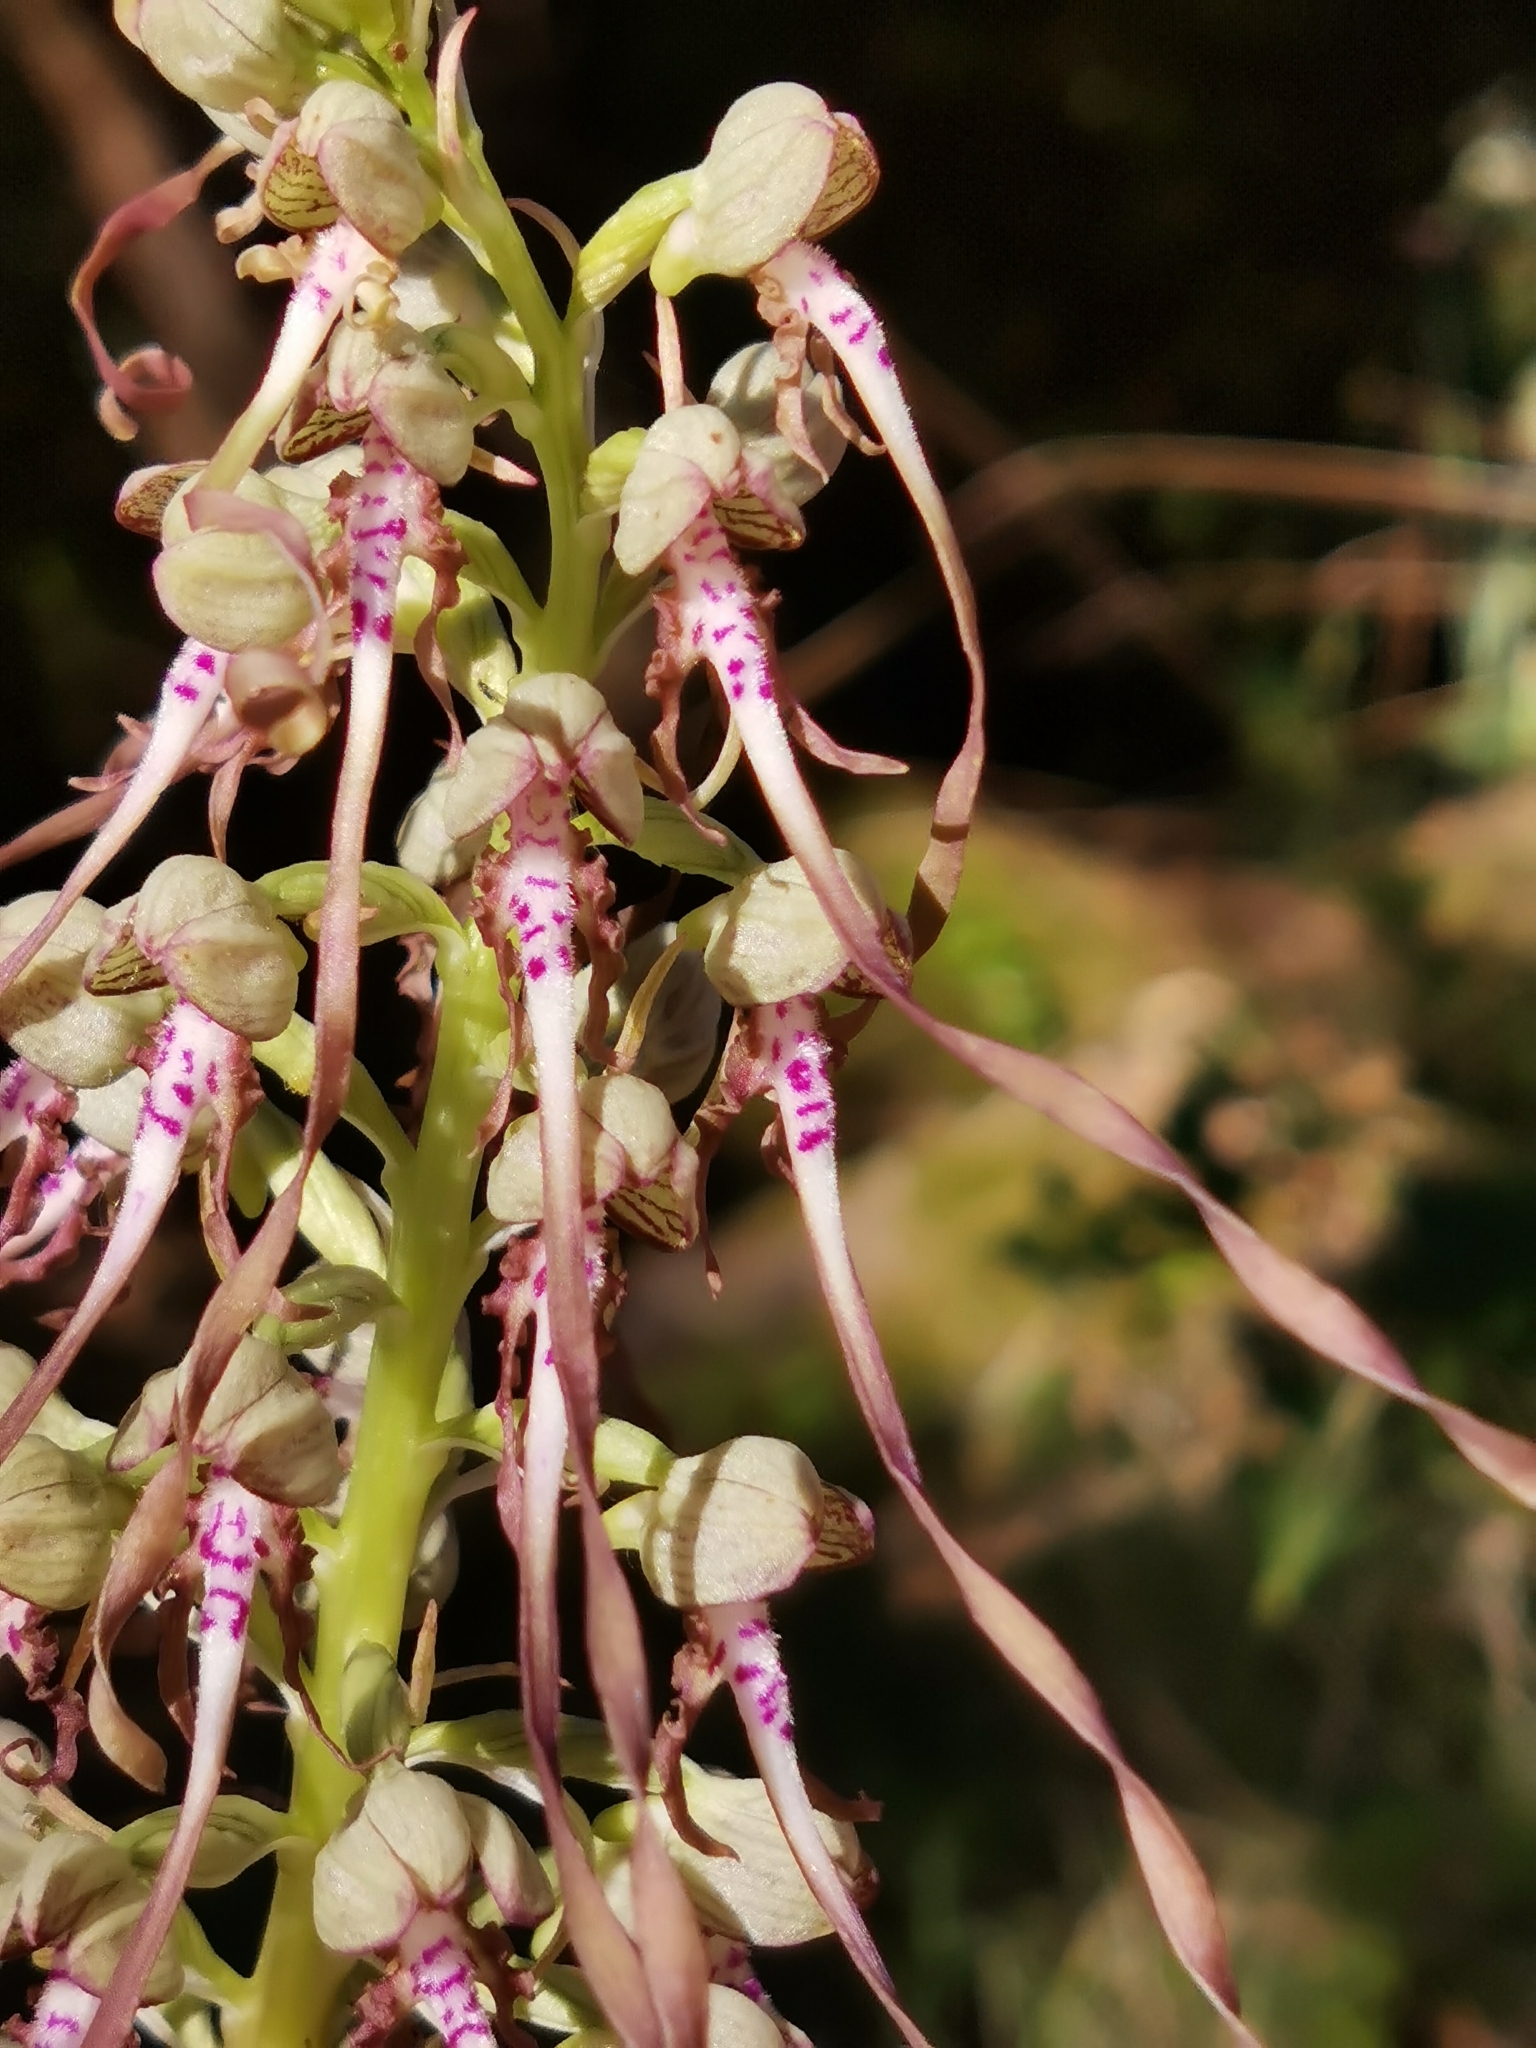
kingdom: Plantae
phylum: Tracheophyta
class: Liliopsida
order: Asparagales
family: Orchidaceae
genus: Himantoglossum
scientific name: Himantoglossum hircinum
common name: Lizard orchid
